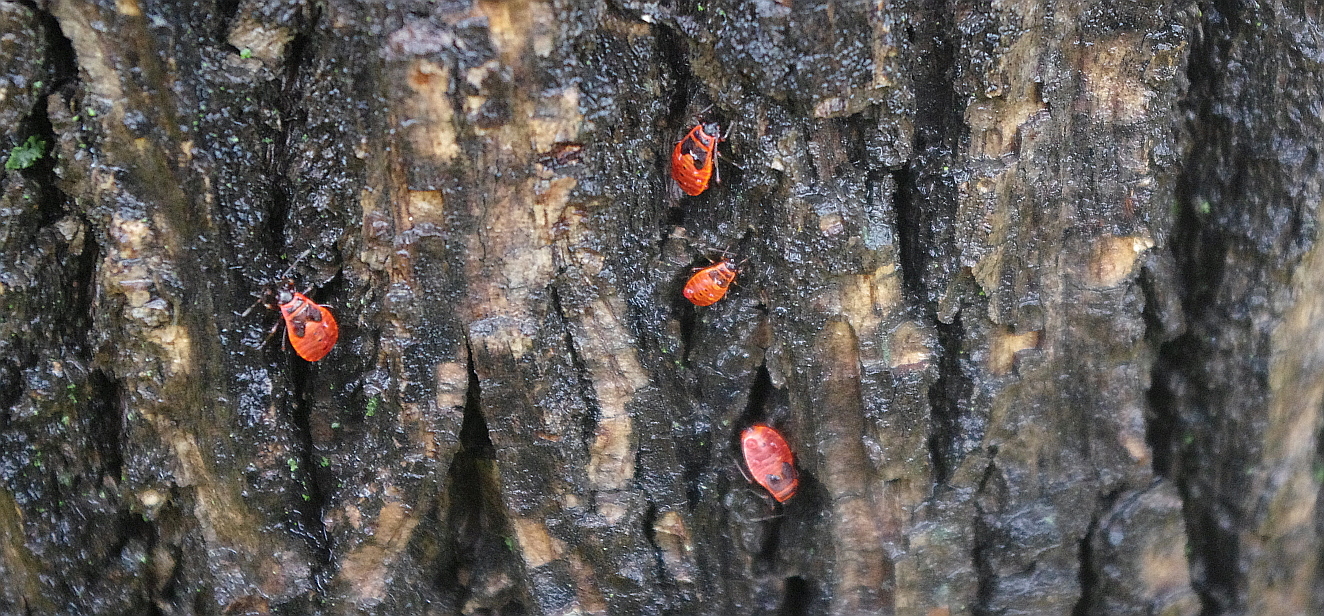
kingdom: Animalia
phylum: Arthropoda
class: Insecta
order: Hemiptera
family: Pyrrhocoridae
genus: Pyrrhocoris
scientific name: Pyrrhocoris apterus
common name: Firebug
